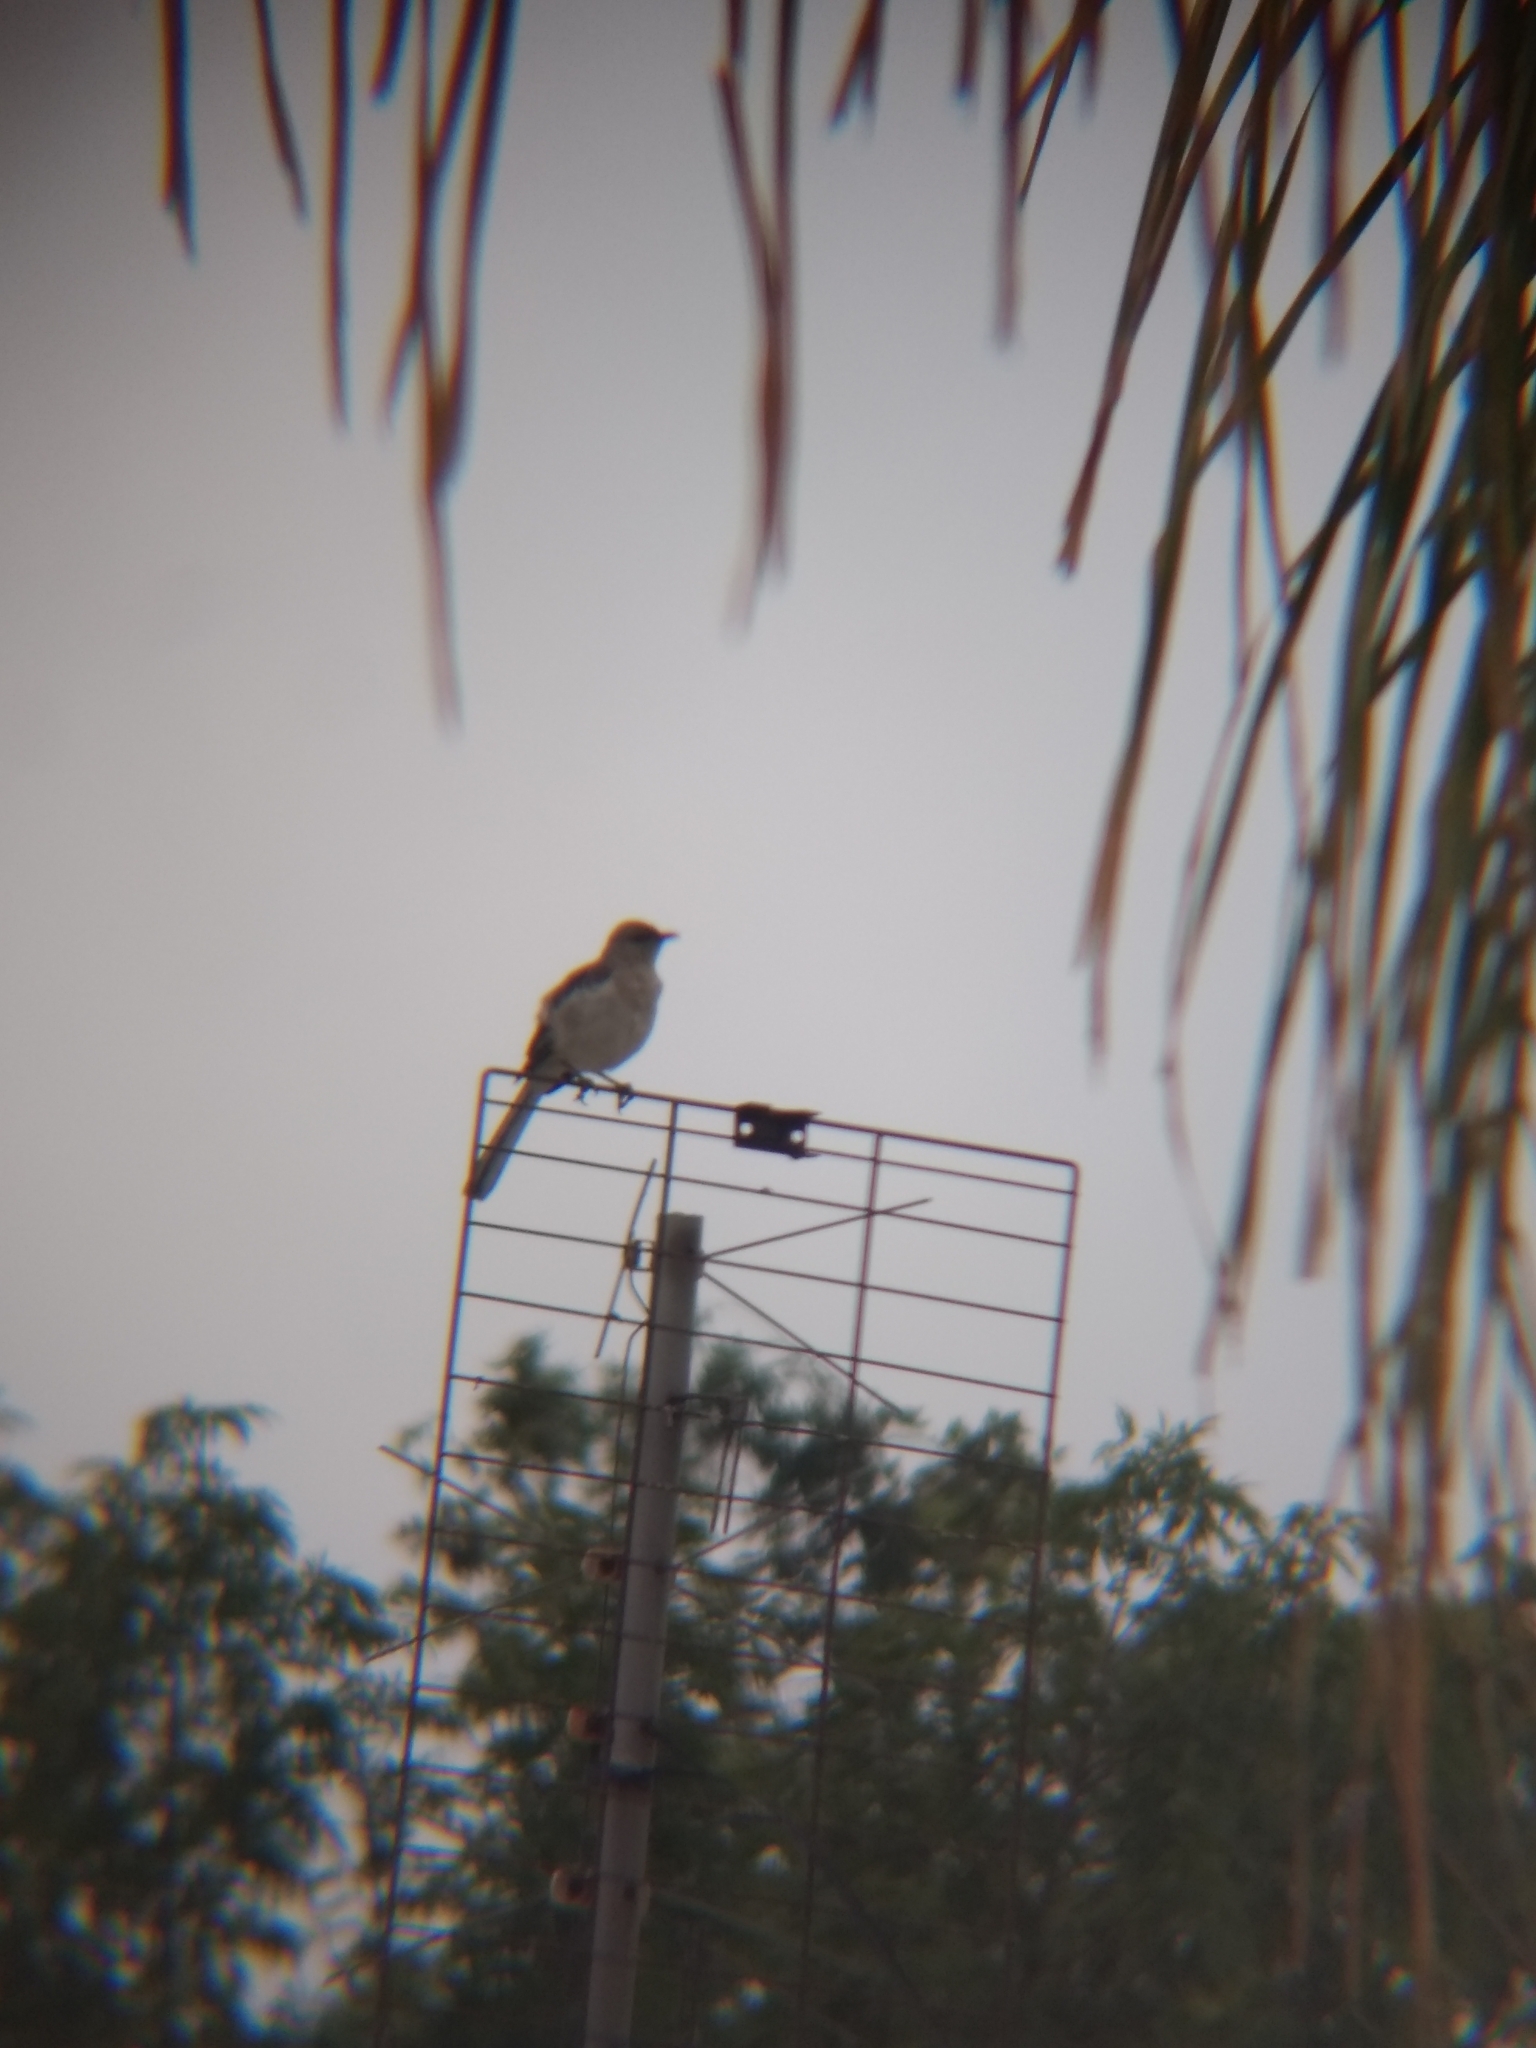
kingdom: Animalia
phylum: Chordata
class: Aves
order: Passeriformes
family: Mimidae
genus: Mimus
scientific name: Mimus polyglottos
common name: Northern mockingbird
